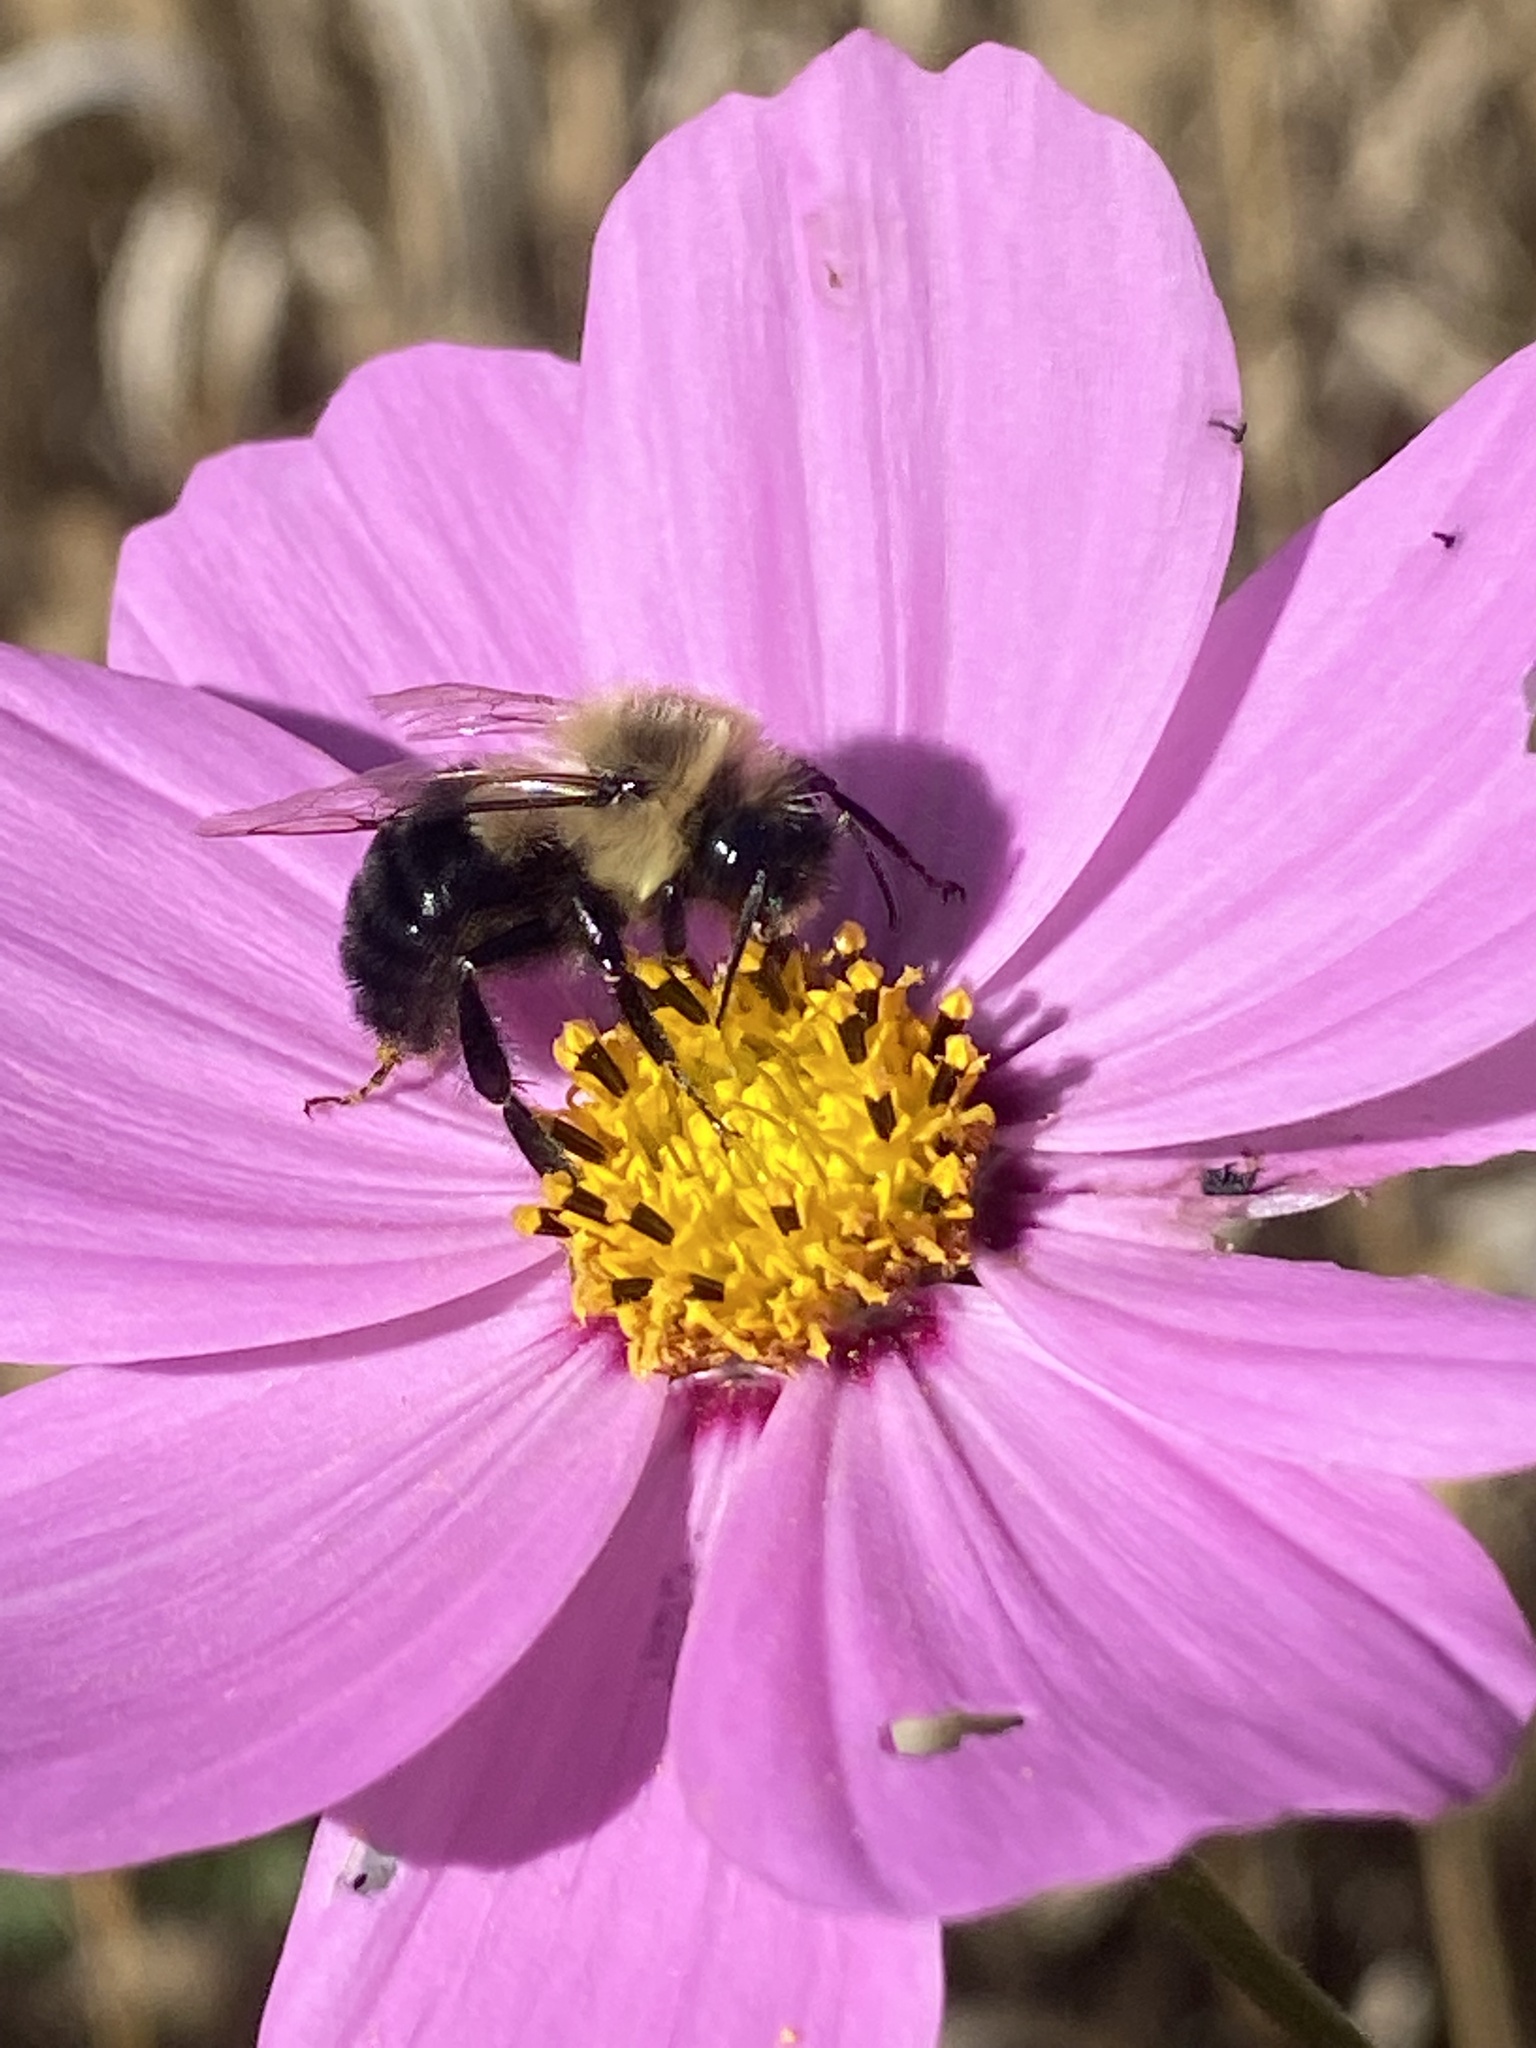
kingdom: Animalia
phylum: Arthropoda
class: Insecta
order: Hymenoptera
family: Apidae
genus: Bombus
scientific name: Bombus impatiens
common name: Common eastern bumble bee
